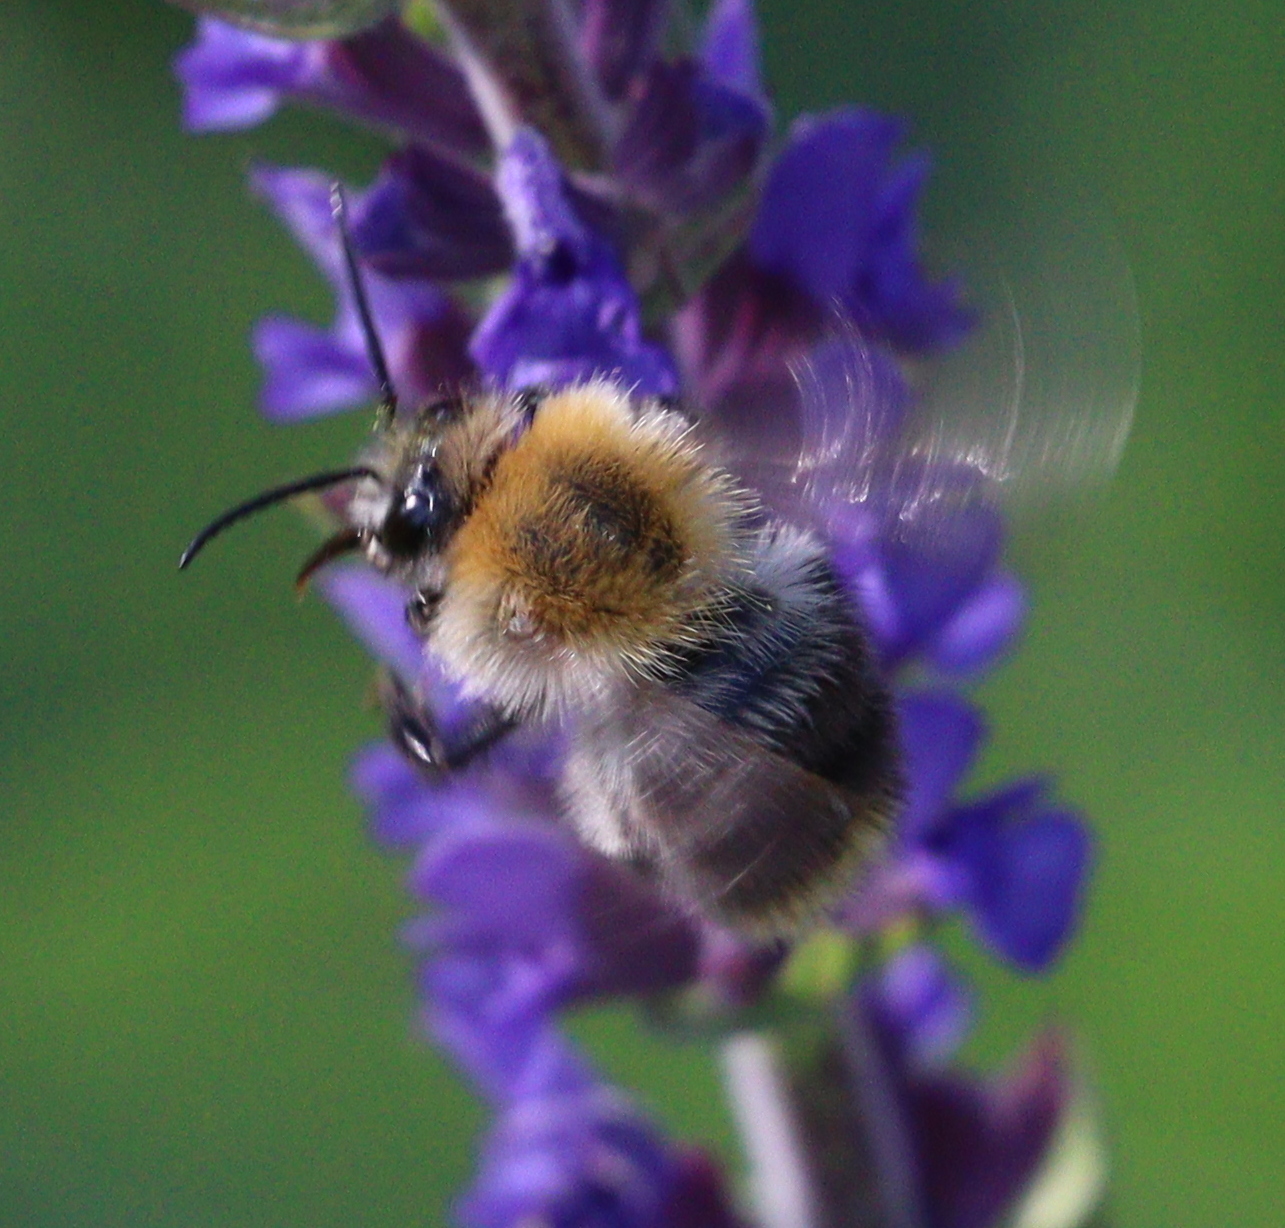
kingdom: Animalia
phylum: Arthropoda
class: Insecta
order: Hymenoptera
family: Apidae
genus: Bombus
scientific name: Bombus pascuorum
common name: Common carder bee
